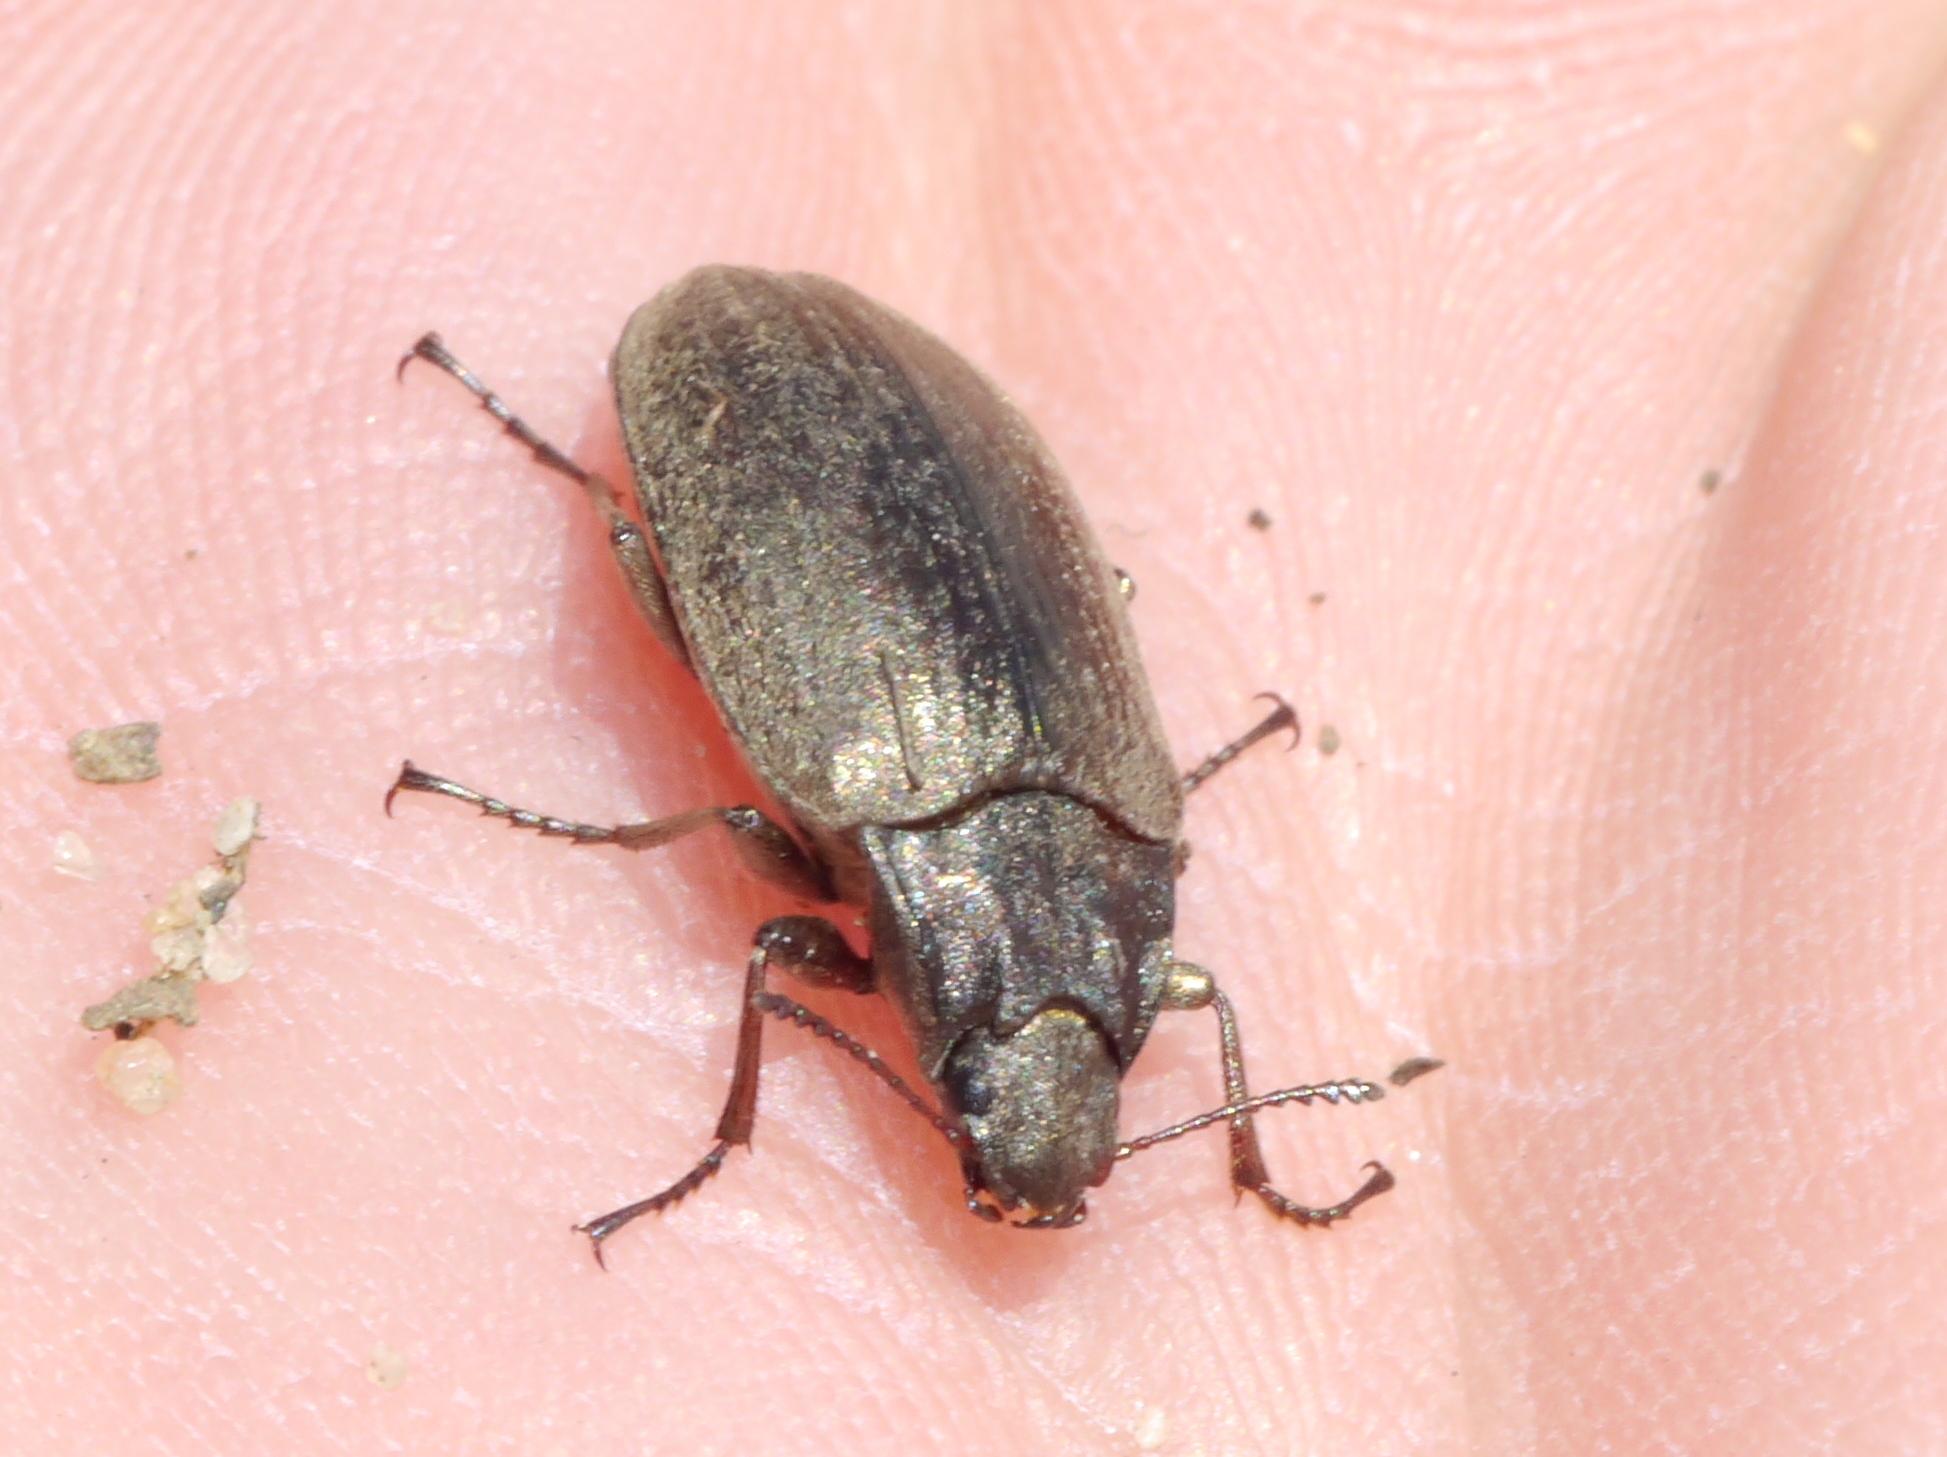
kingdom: Animalia
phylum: Arthropoda
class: Insecta
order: Coleoptera
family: Tenebrionidae
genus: Bothrotes
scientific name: Bothrotes canaliculatus
